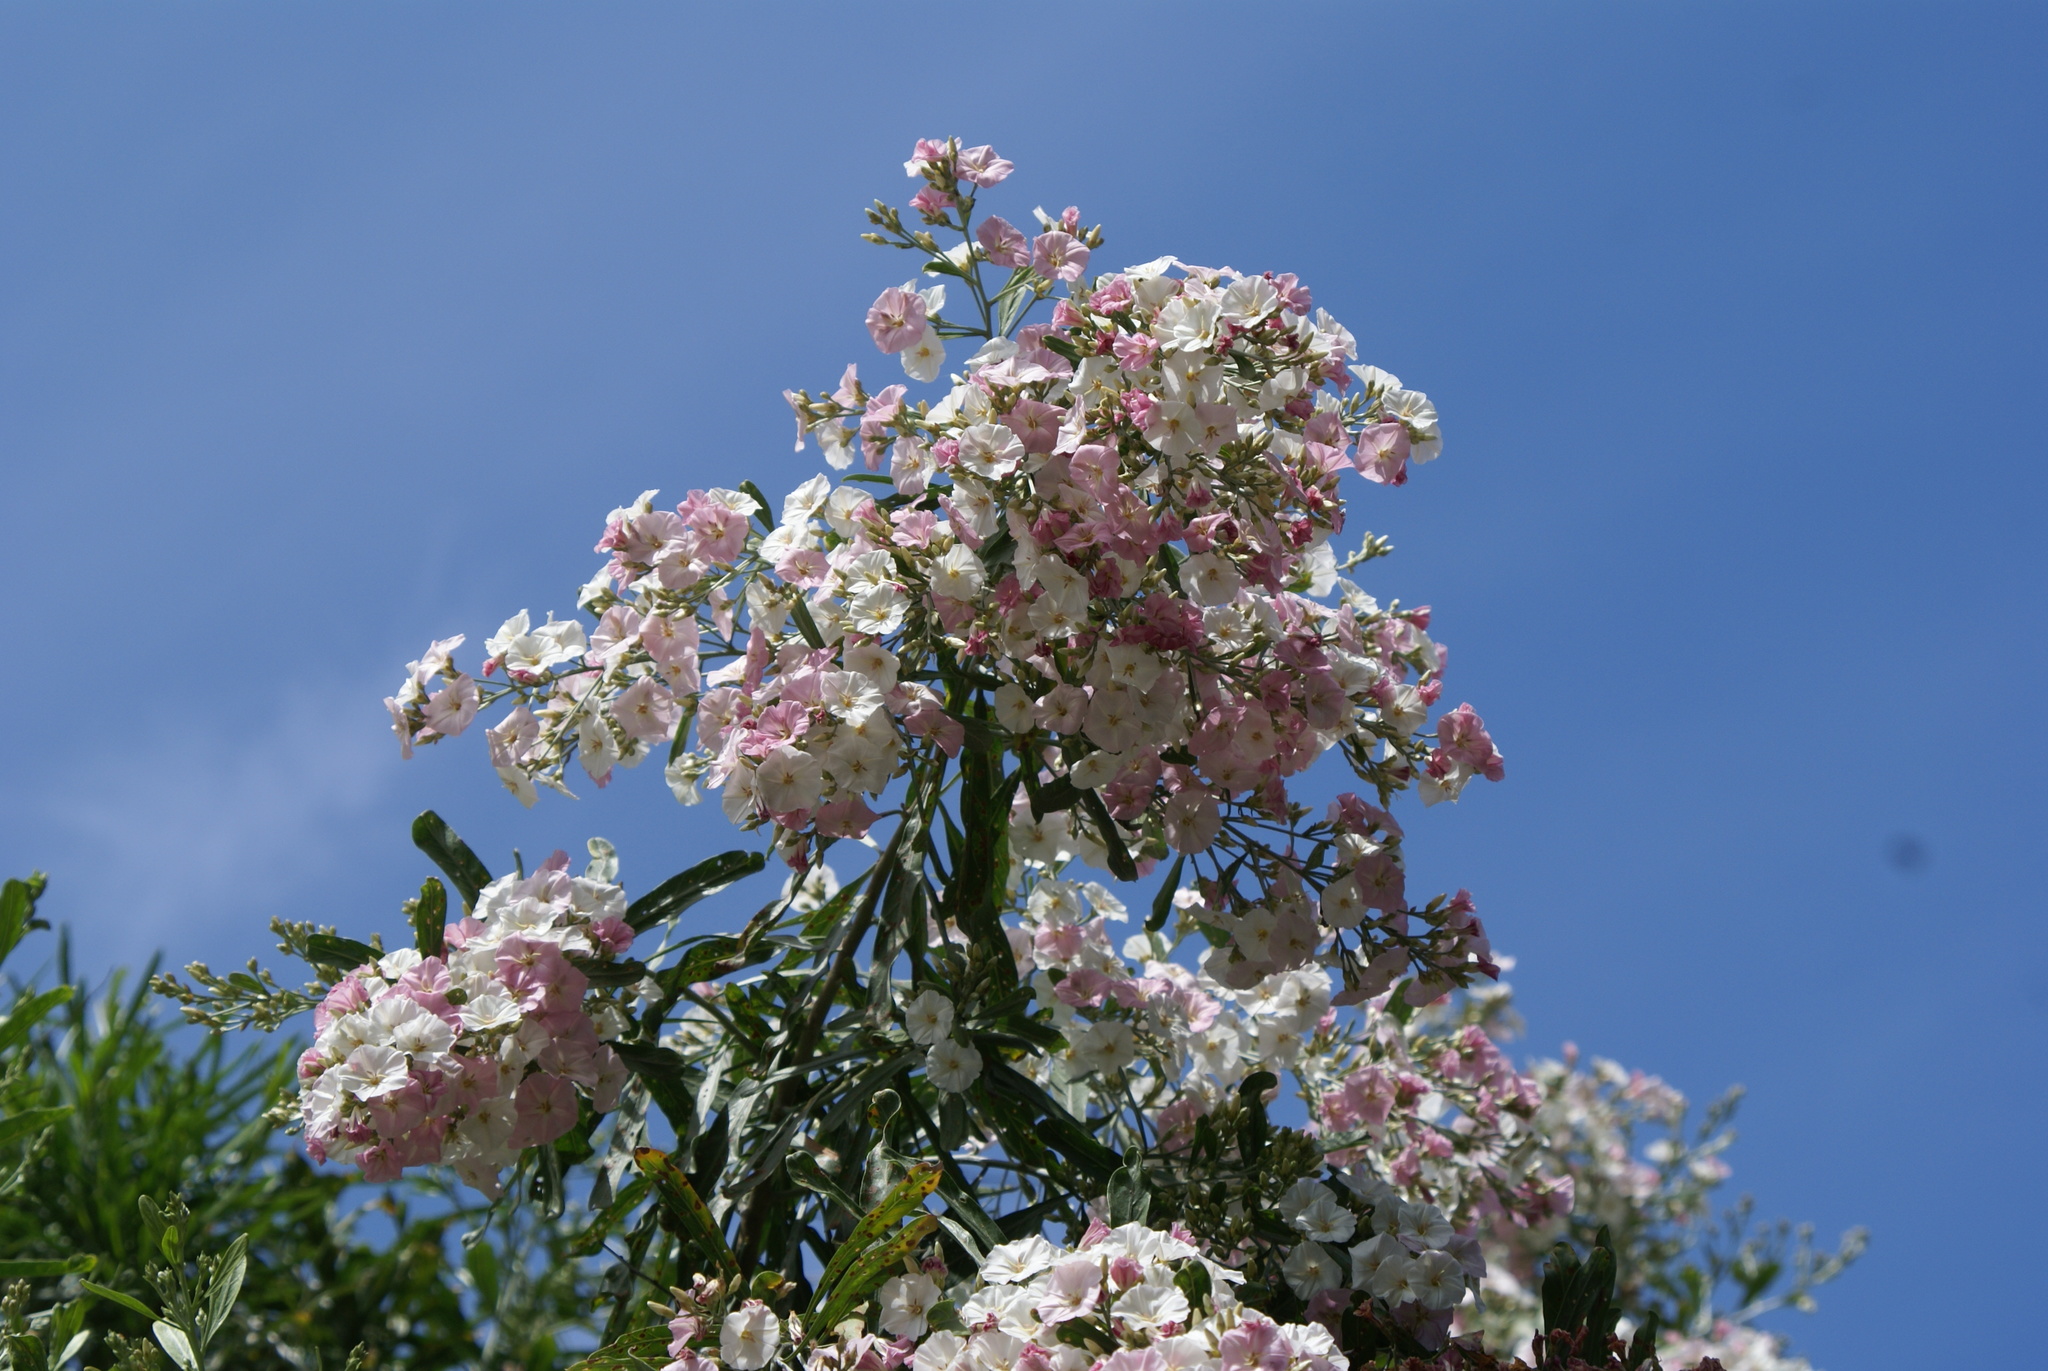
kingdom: Plantae
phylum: Tracheophyta
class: Magnoliopsida
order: Solanales
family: Convolvulaceae
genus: Convolvulus
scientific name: Convolvulus floridus
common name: Guadil
